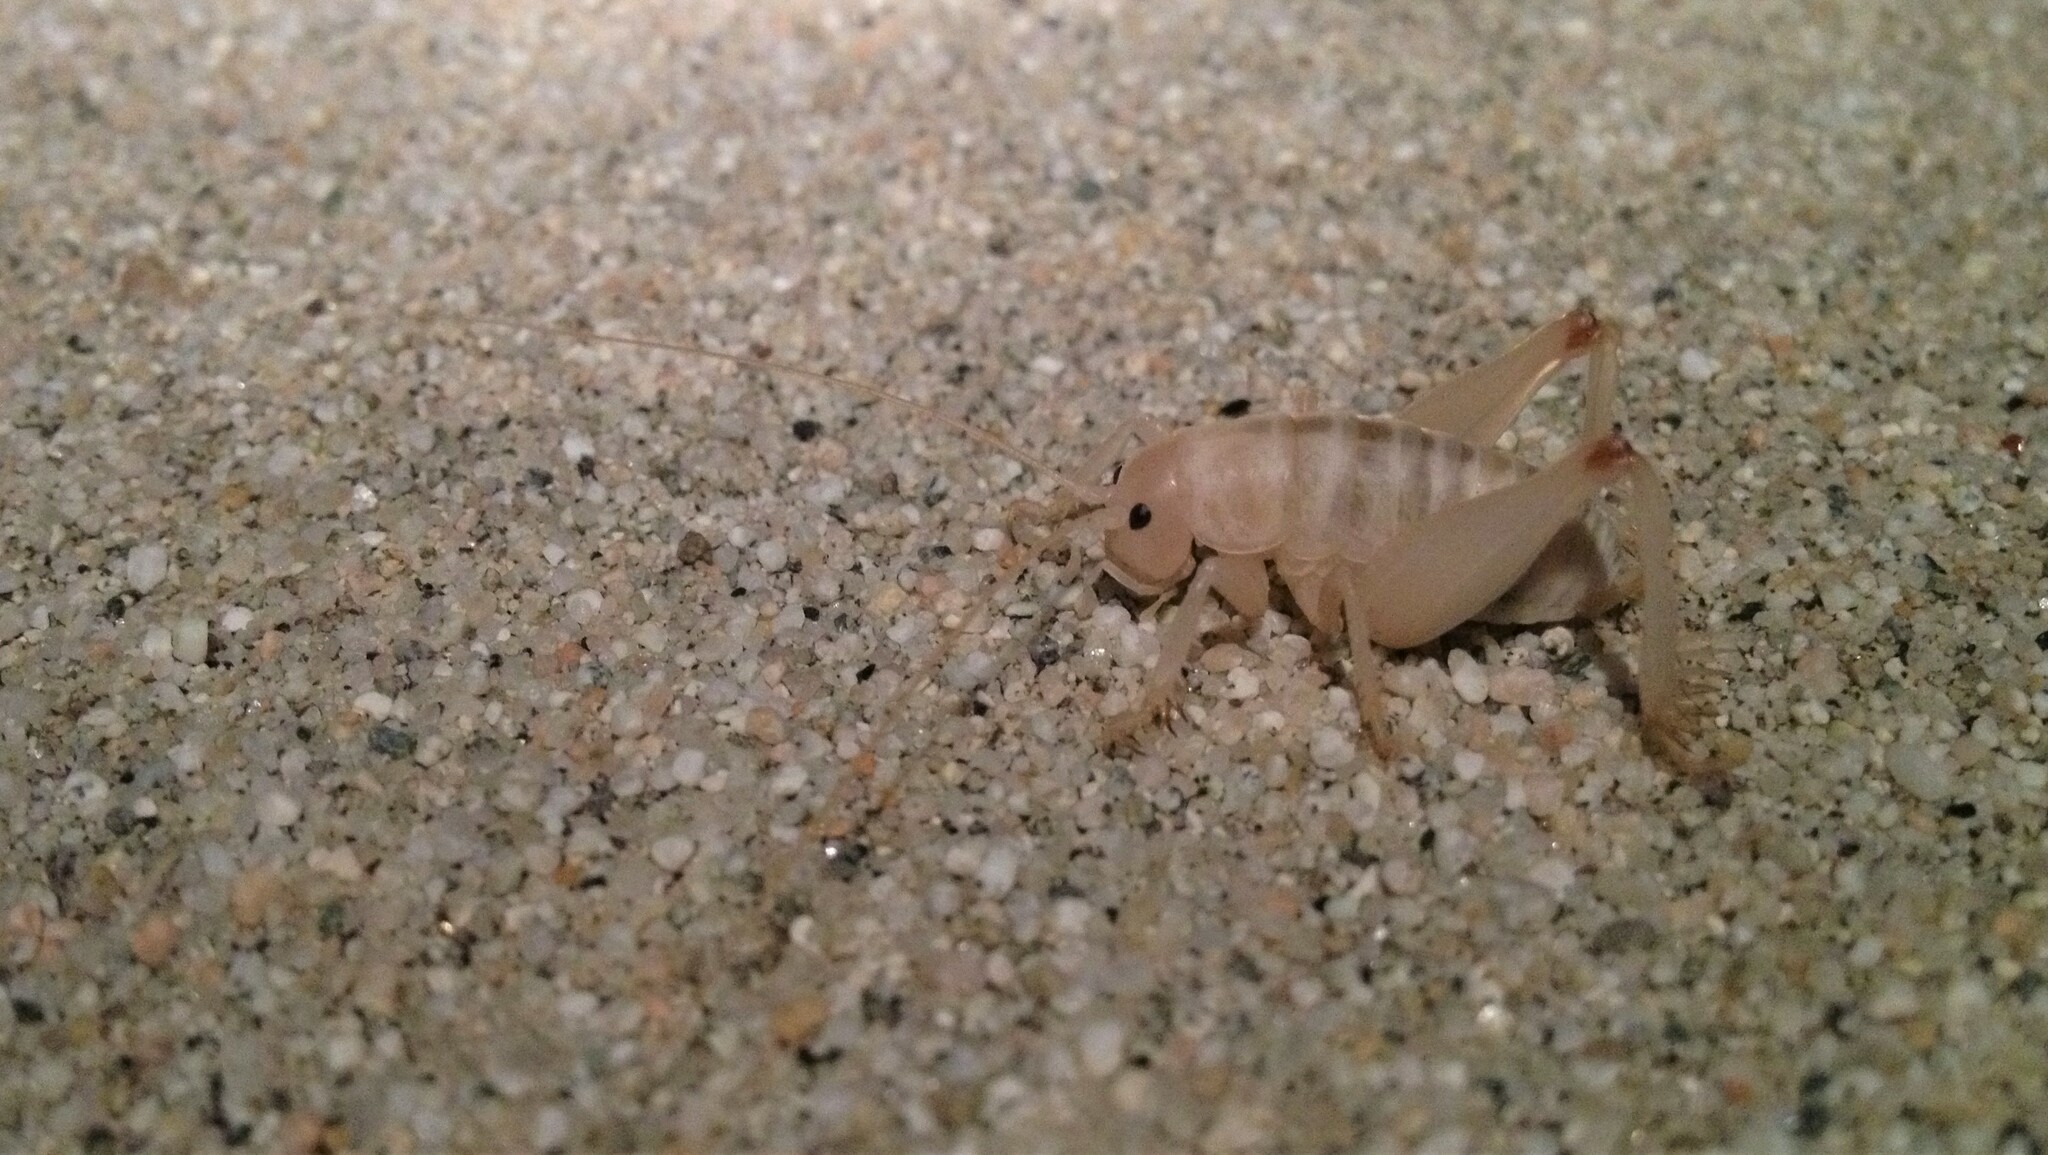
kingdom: Animalia
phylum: Arthropoda
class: Insecta
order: Orthoptera
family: Rhaphidophoridae
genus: Macrobaenetes
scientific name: Macrobaenetes valgum
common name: Coachelia giant sand treader cricket
